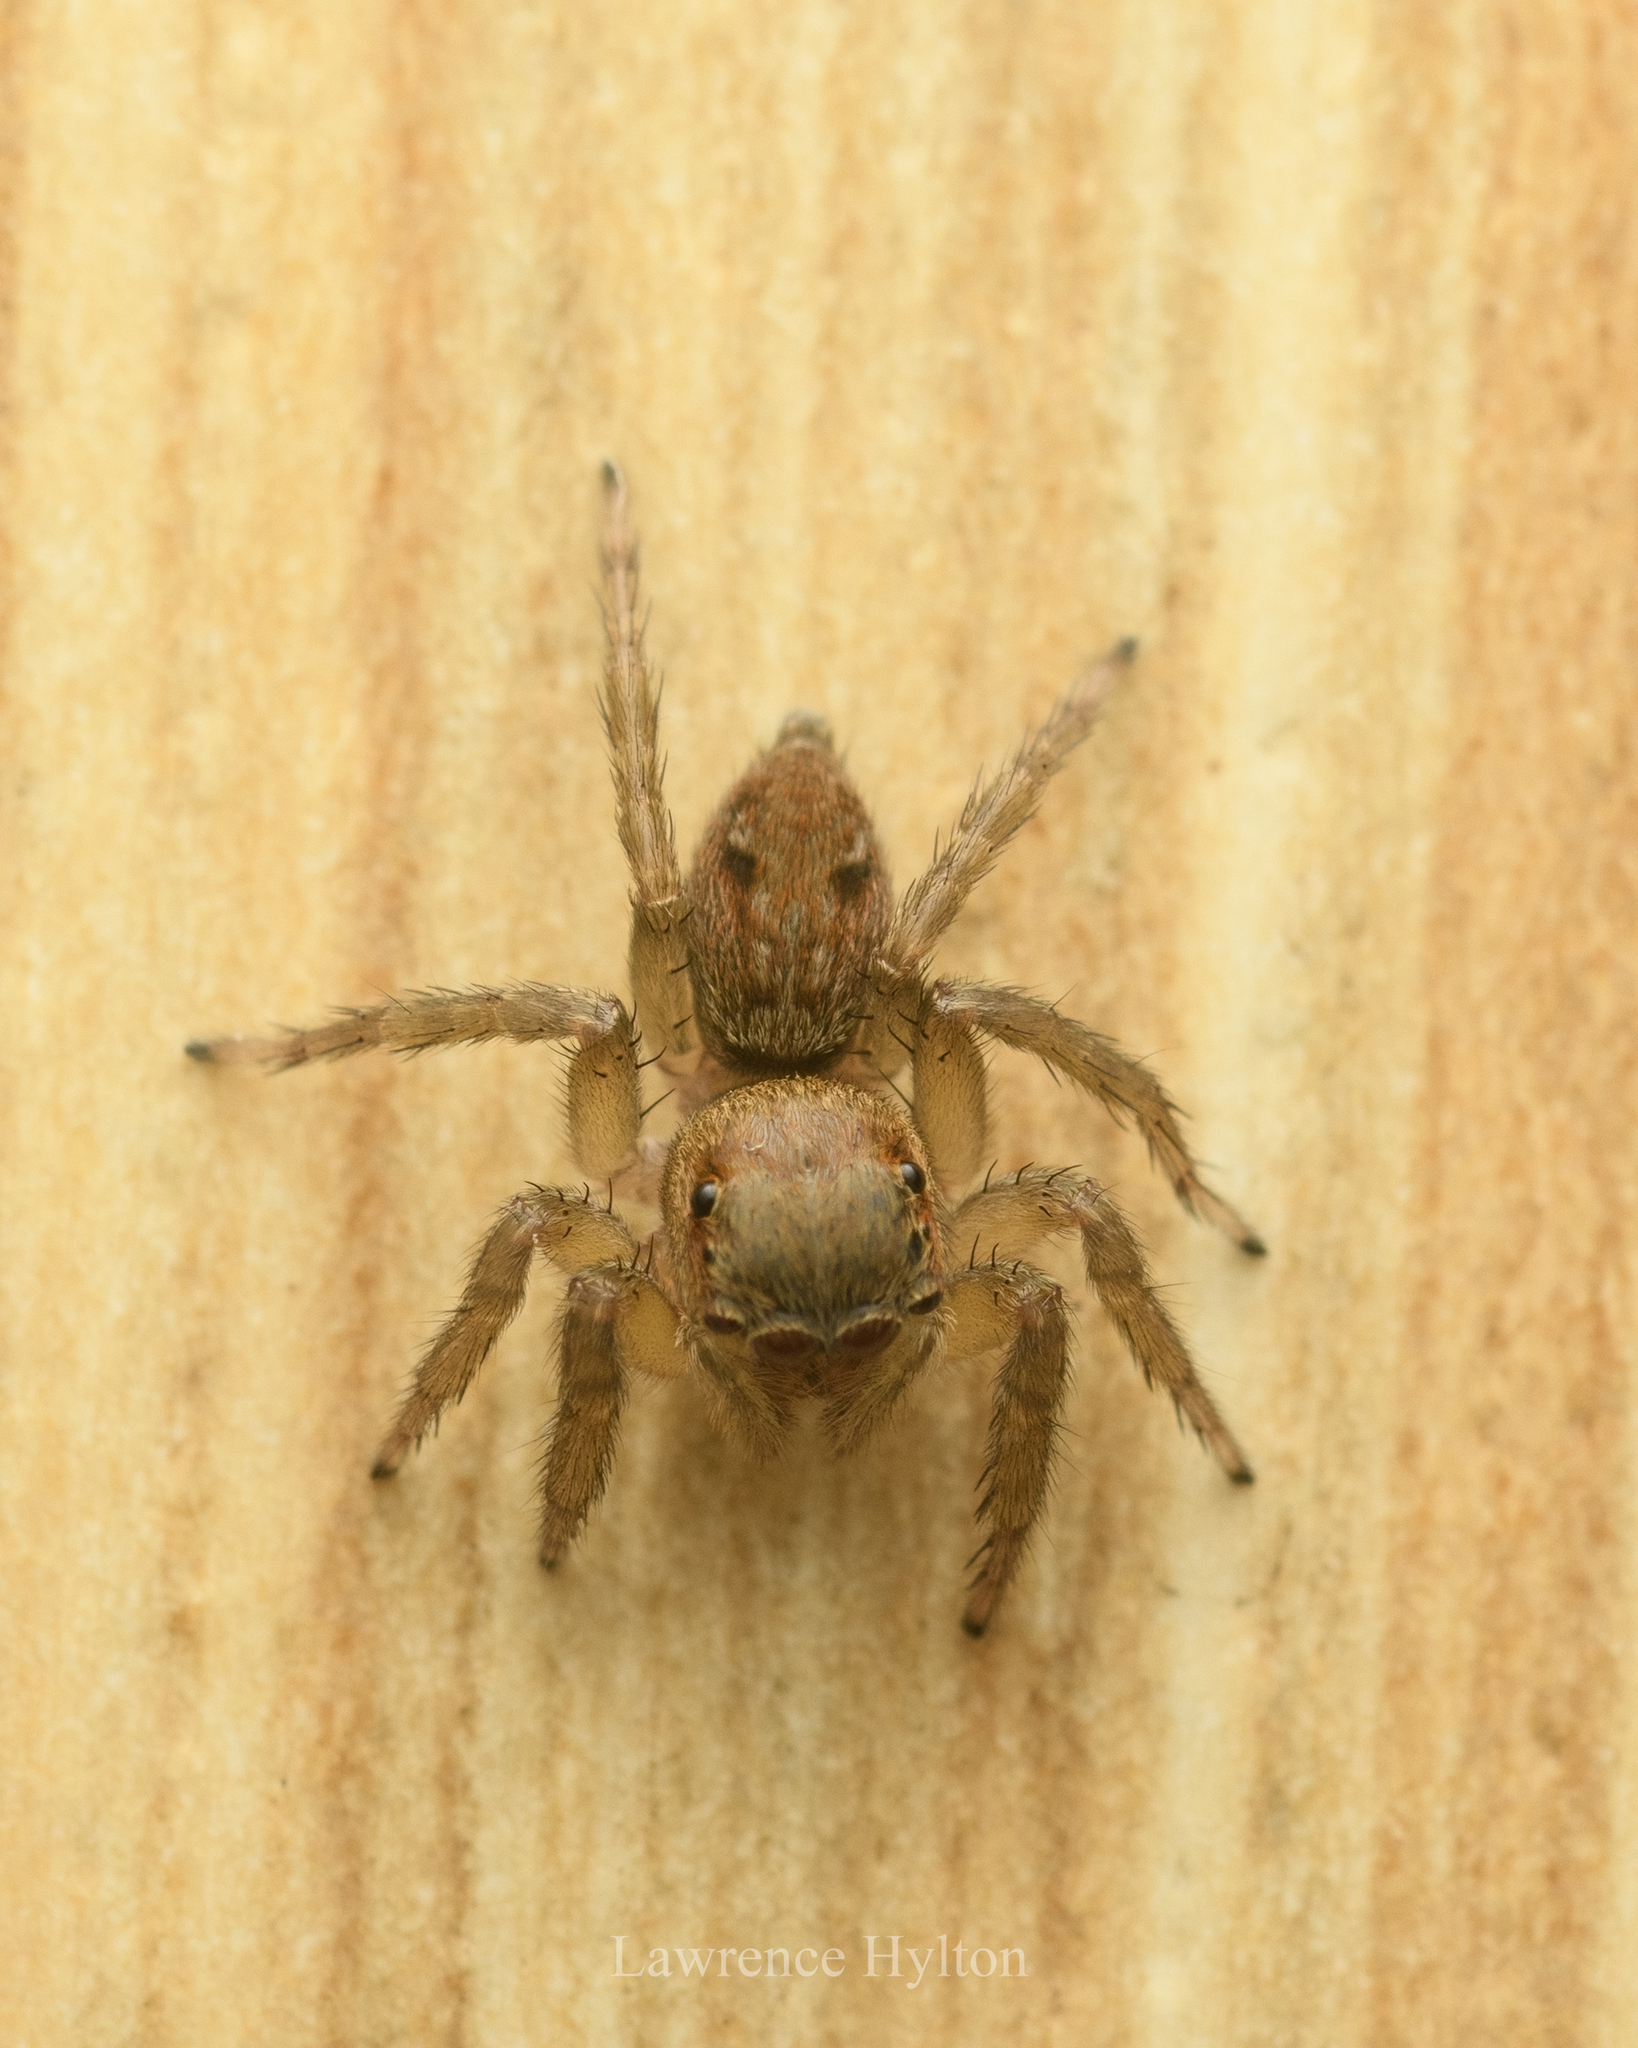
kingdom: Animalia
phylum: Arthropoda
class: Arachnida
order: Araneae
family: Salticidae
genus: Hasarius
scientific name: Hasarius adansoni
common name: Jumping spider
